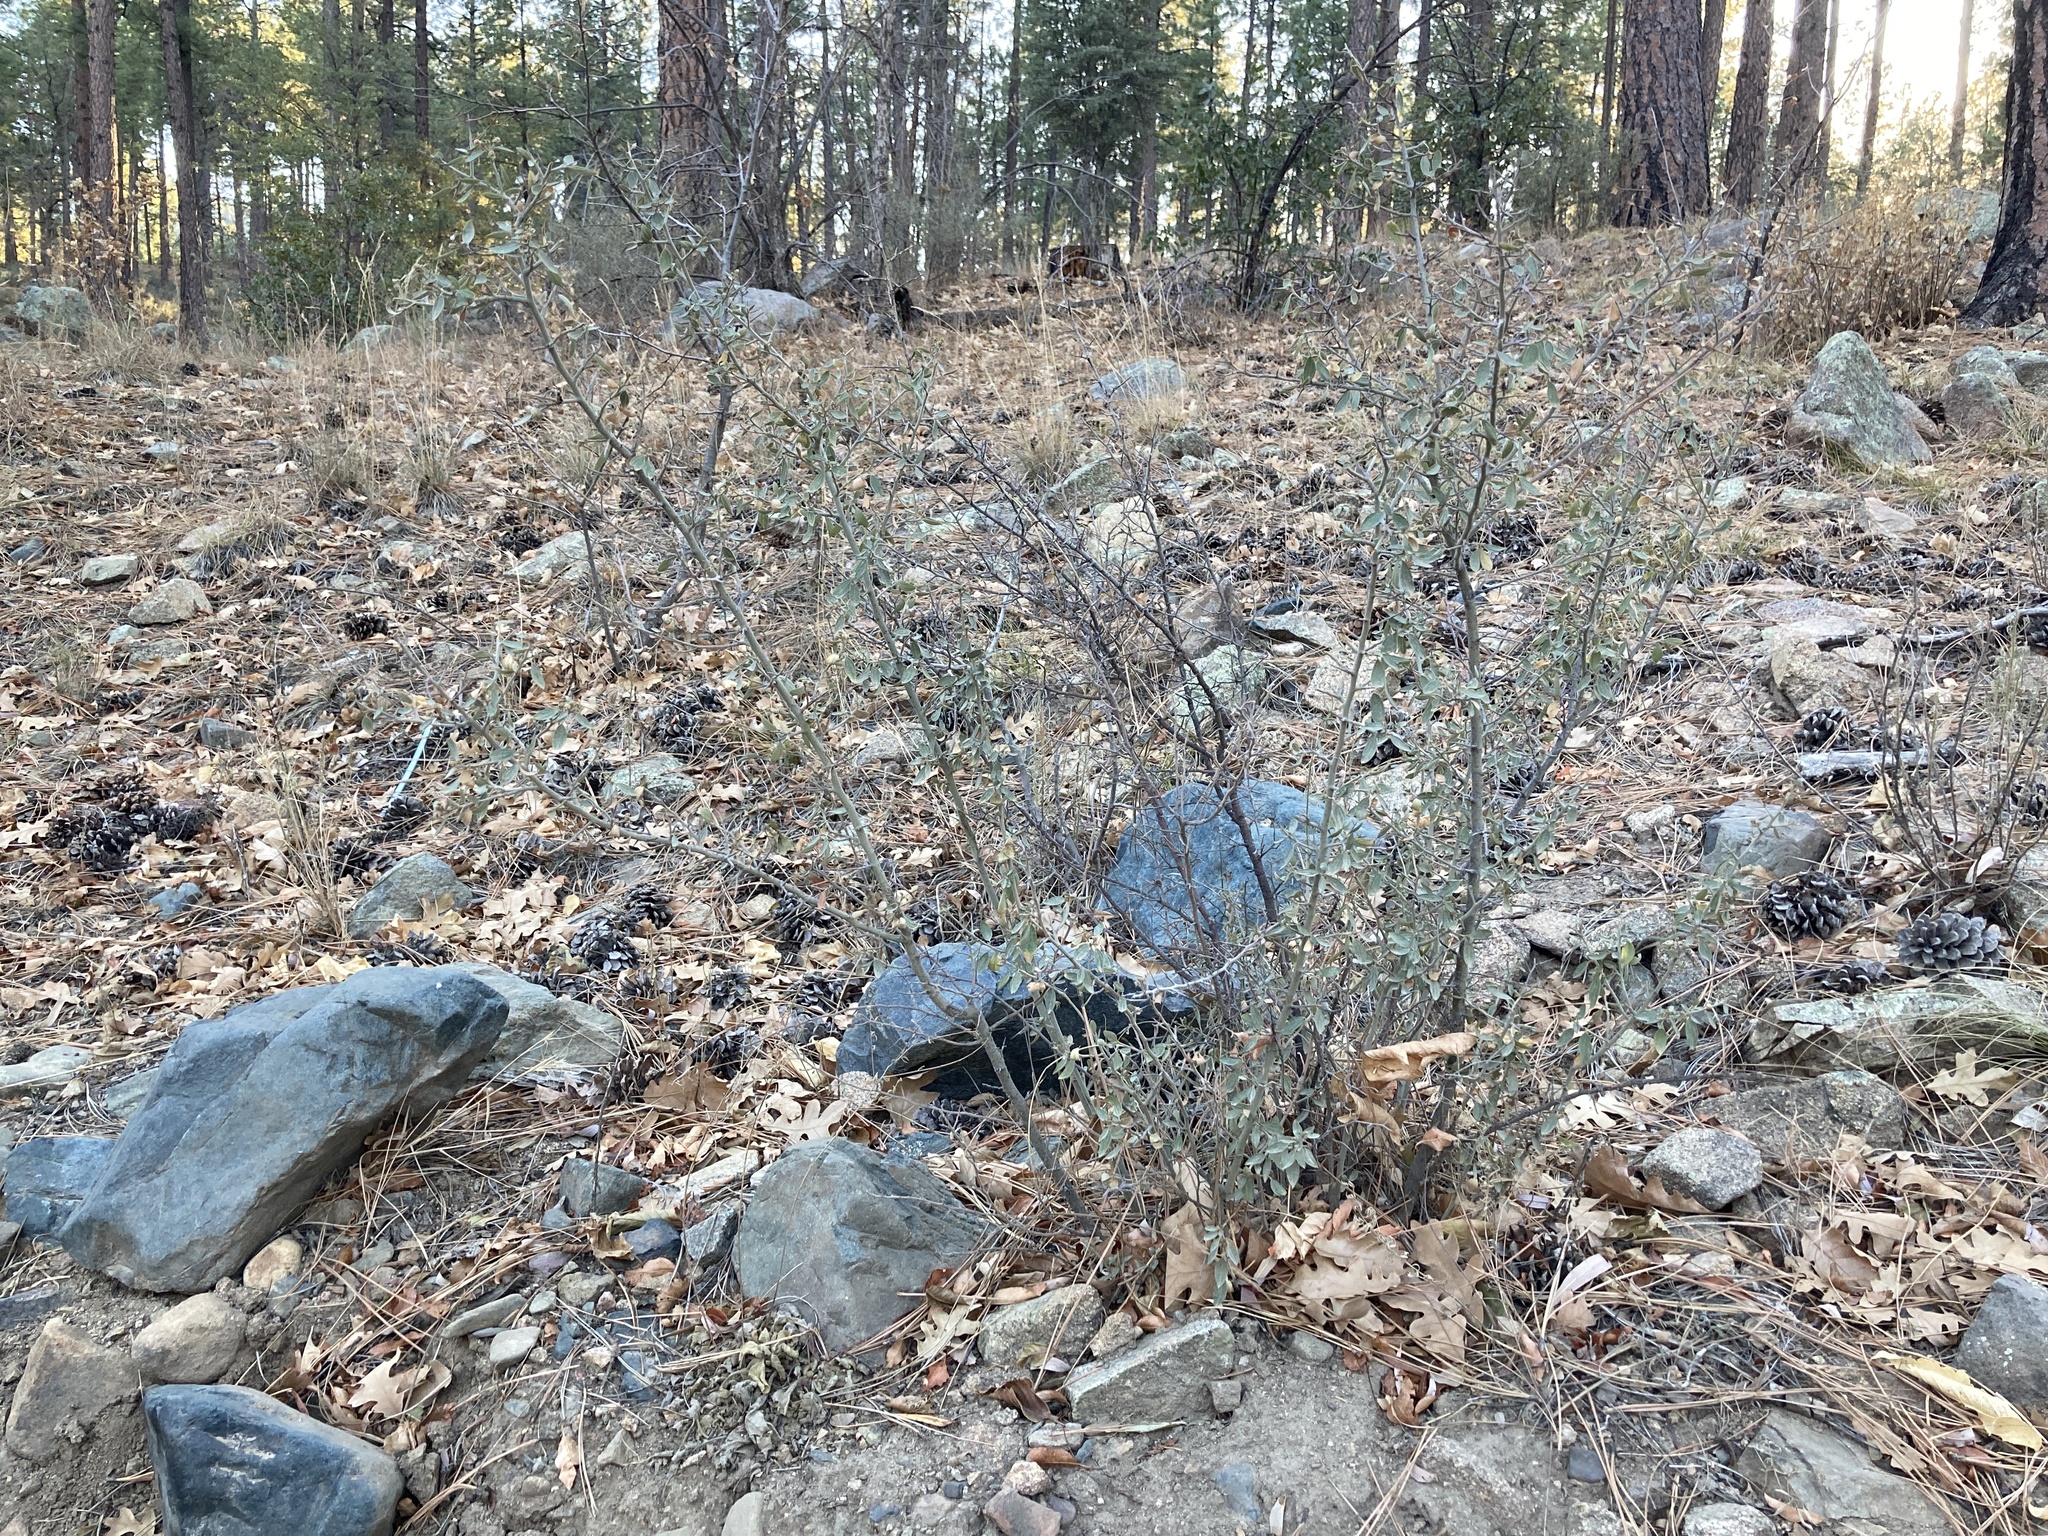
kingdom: Plantae
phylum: Tracheophyta
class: Magnoliopsida
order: Rosales
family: Rhamnaceae
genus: Ceanothus
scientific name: Ceanothus fendleri
